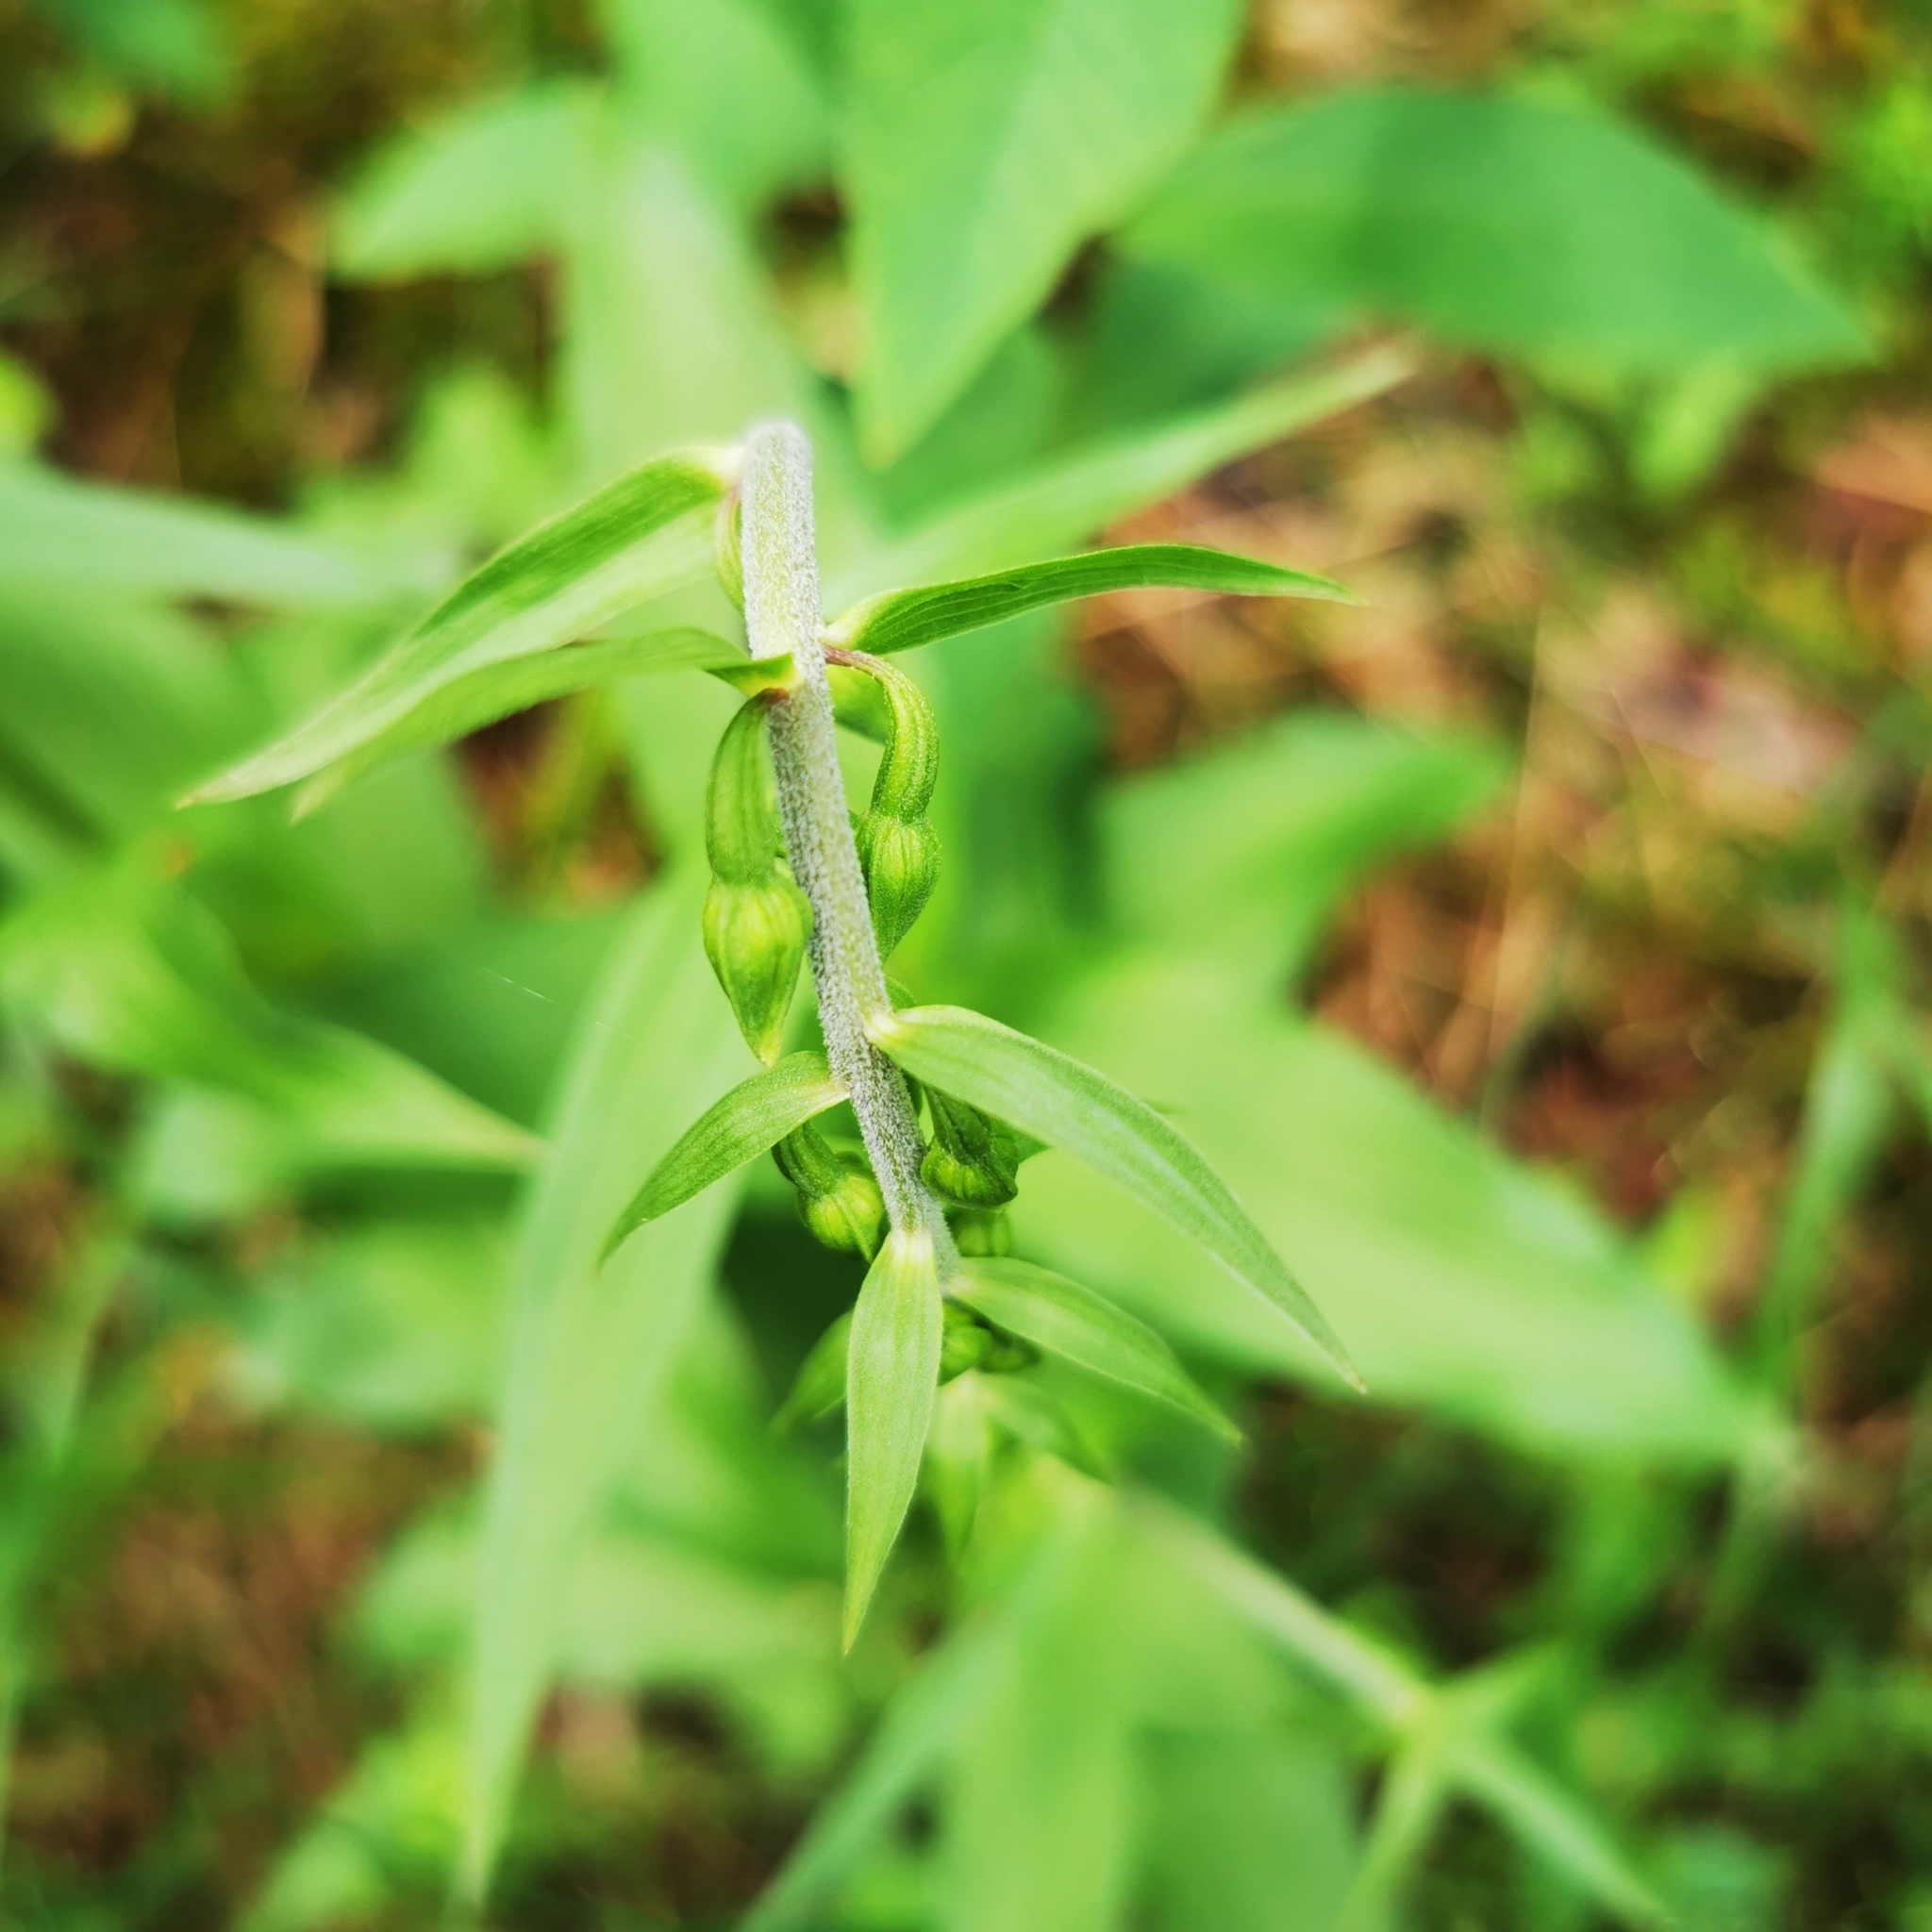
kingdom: Plantae
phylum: Tracheophyta
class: Liliopsida
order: Asparagales
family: Orchidaceae
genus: Epipactis
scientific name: Epipactis helleborine
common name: Broad-leaved helleborine
